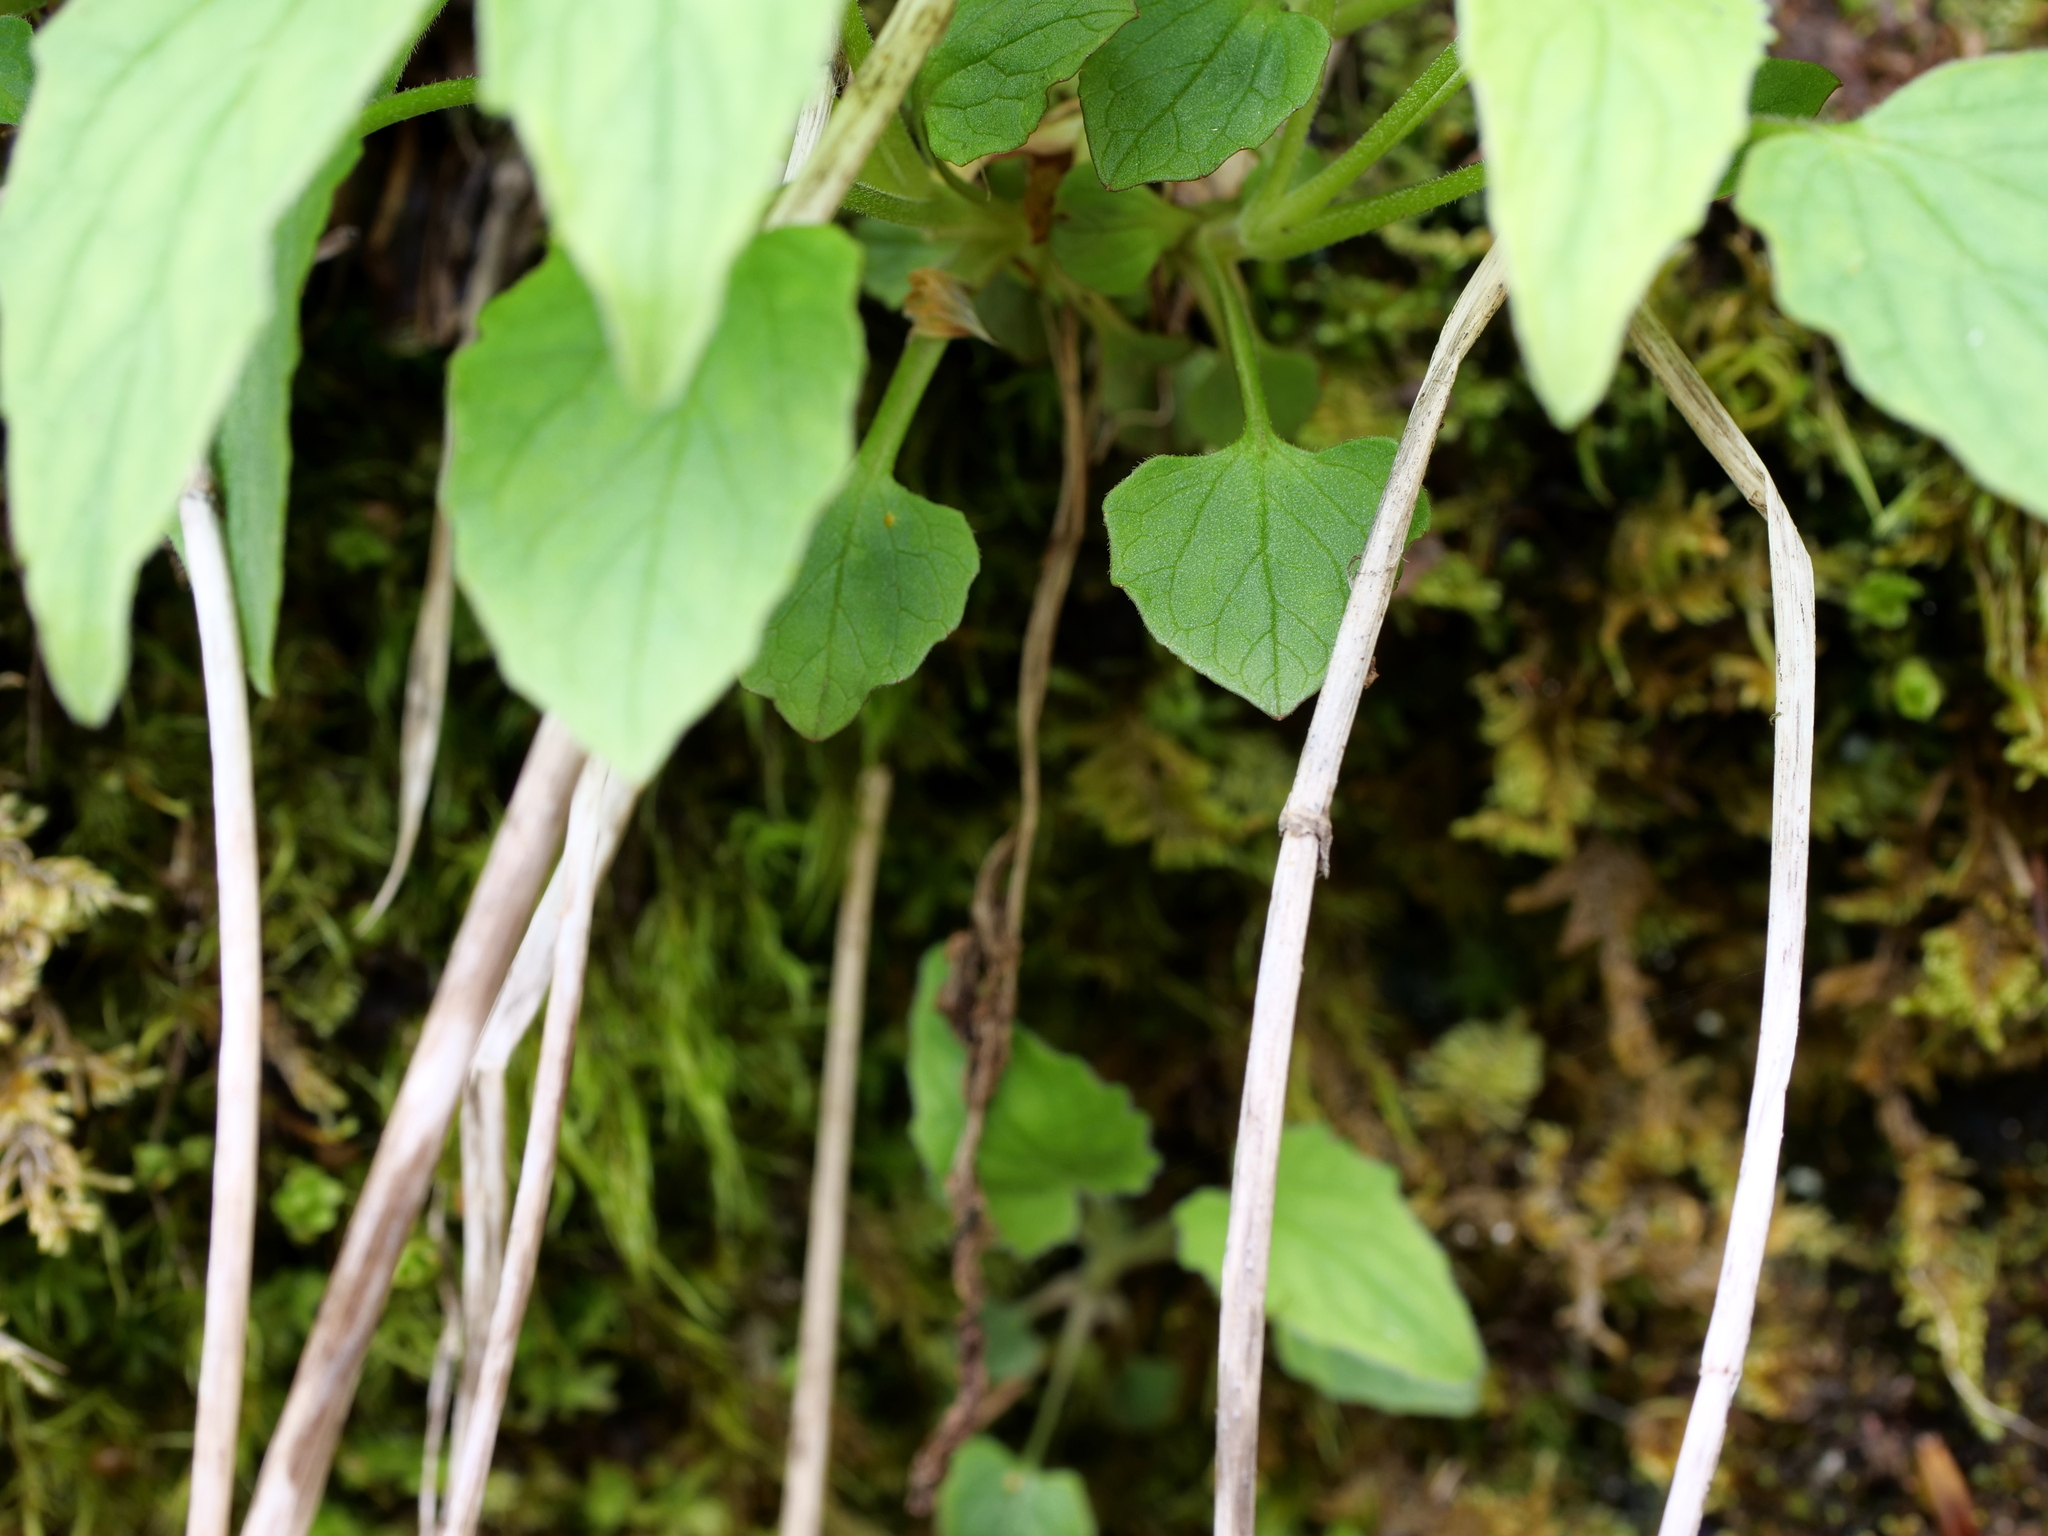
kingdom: Plantae
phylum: Tracheophyta
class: Magnoliopsida
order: Dipsacales
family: Caprifoliaceae
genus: Valeriana
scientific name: Valeriana tripteris
